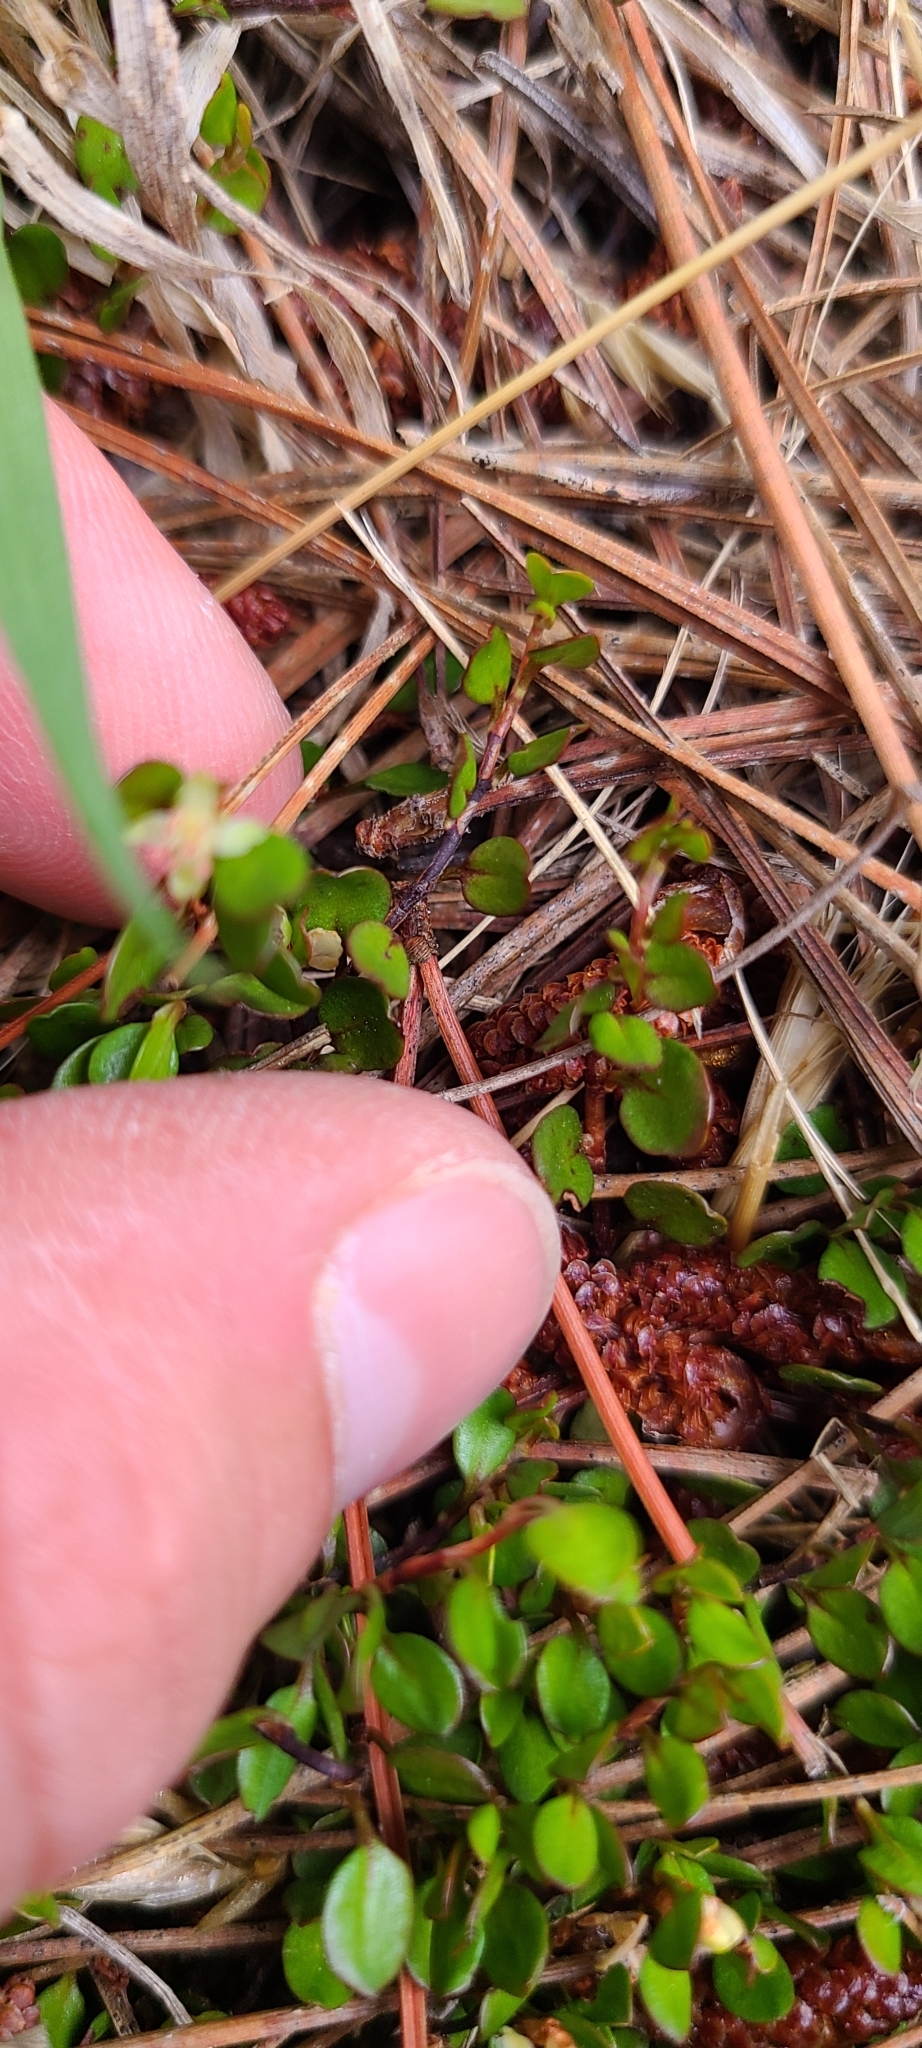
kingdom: Plantae
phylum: Tracheophyta
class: Magnoliopsida
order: Caryophyllales
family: Polygonaceae
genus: Muehlenbeckia
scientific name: Muehlenbeckia axillaris
